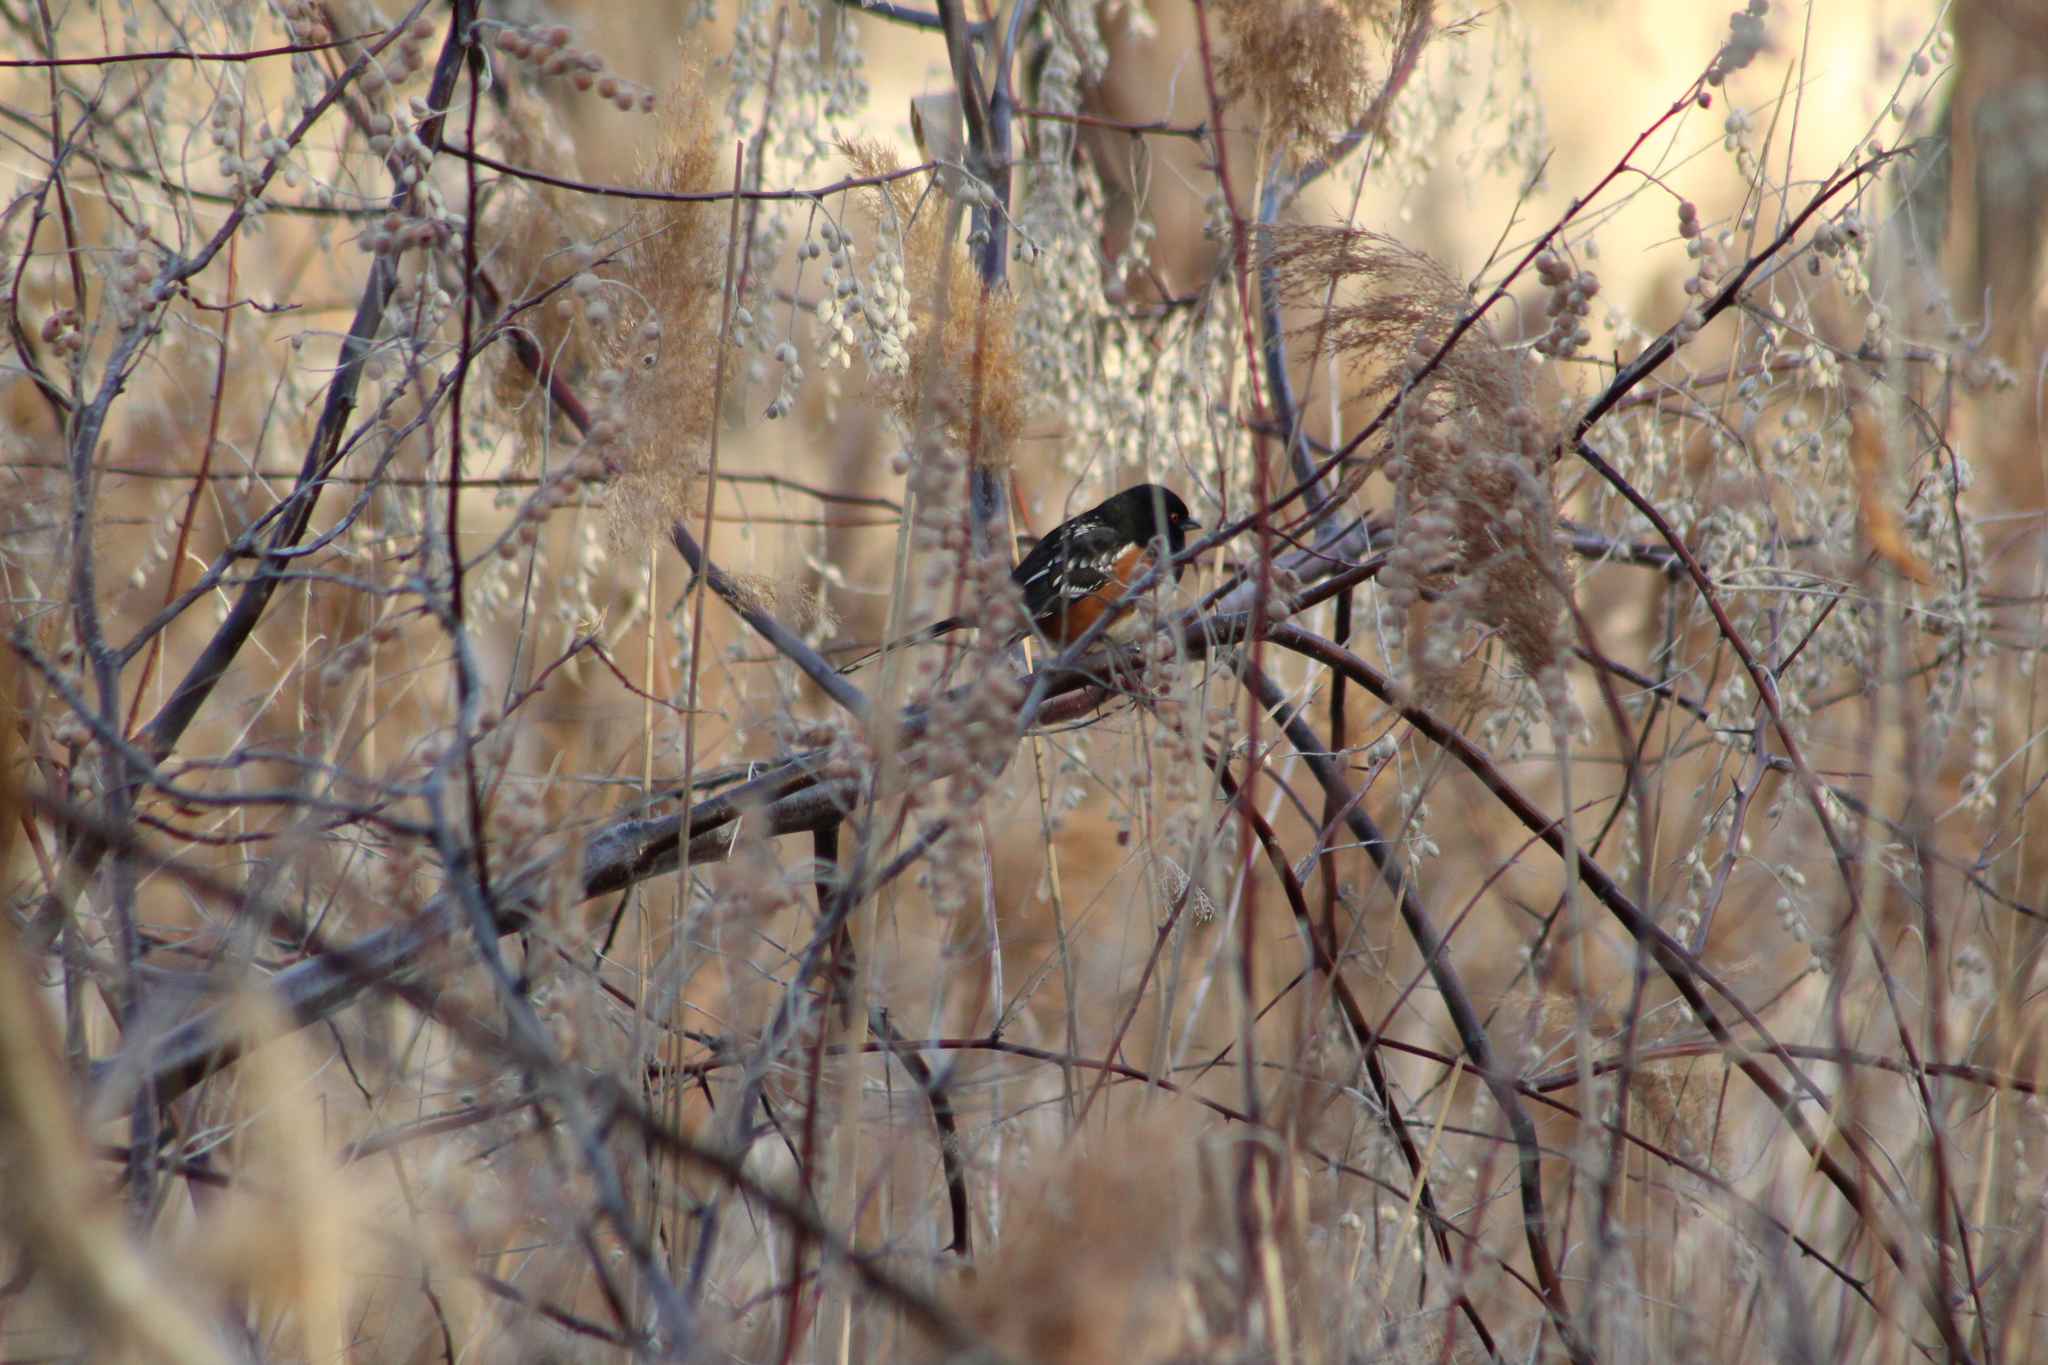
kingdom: Animalia
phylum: Chordata
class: Aves
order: Passeriformes
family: Passerellidae
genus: Pipilo
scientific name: Pipilo maculatus
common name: Spotted towhee
